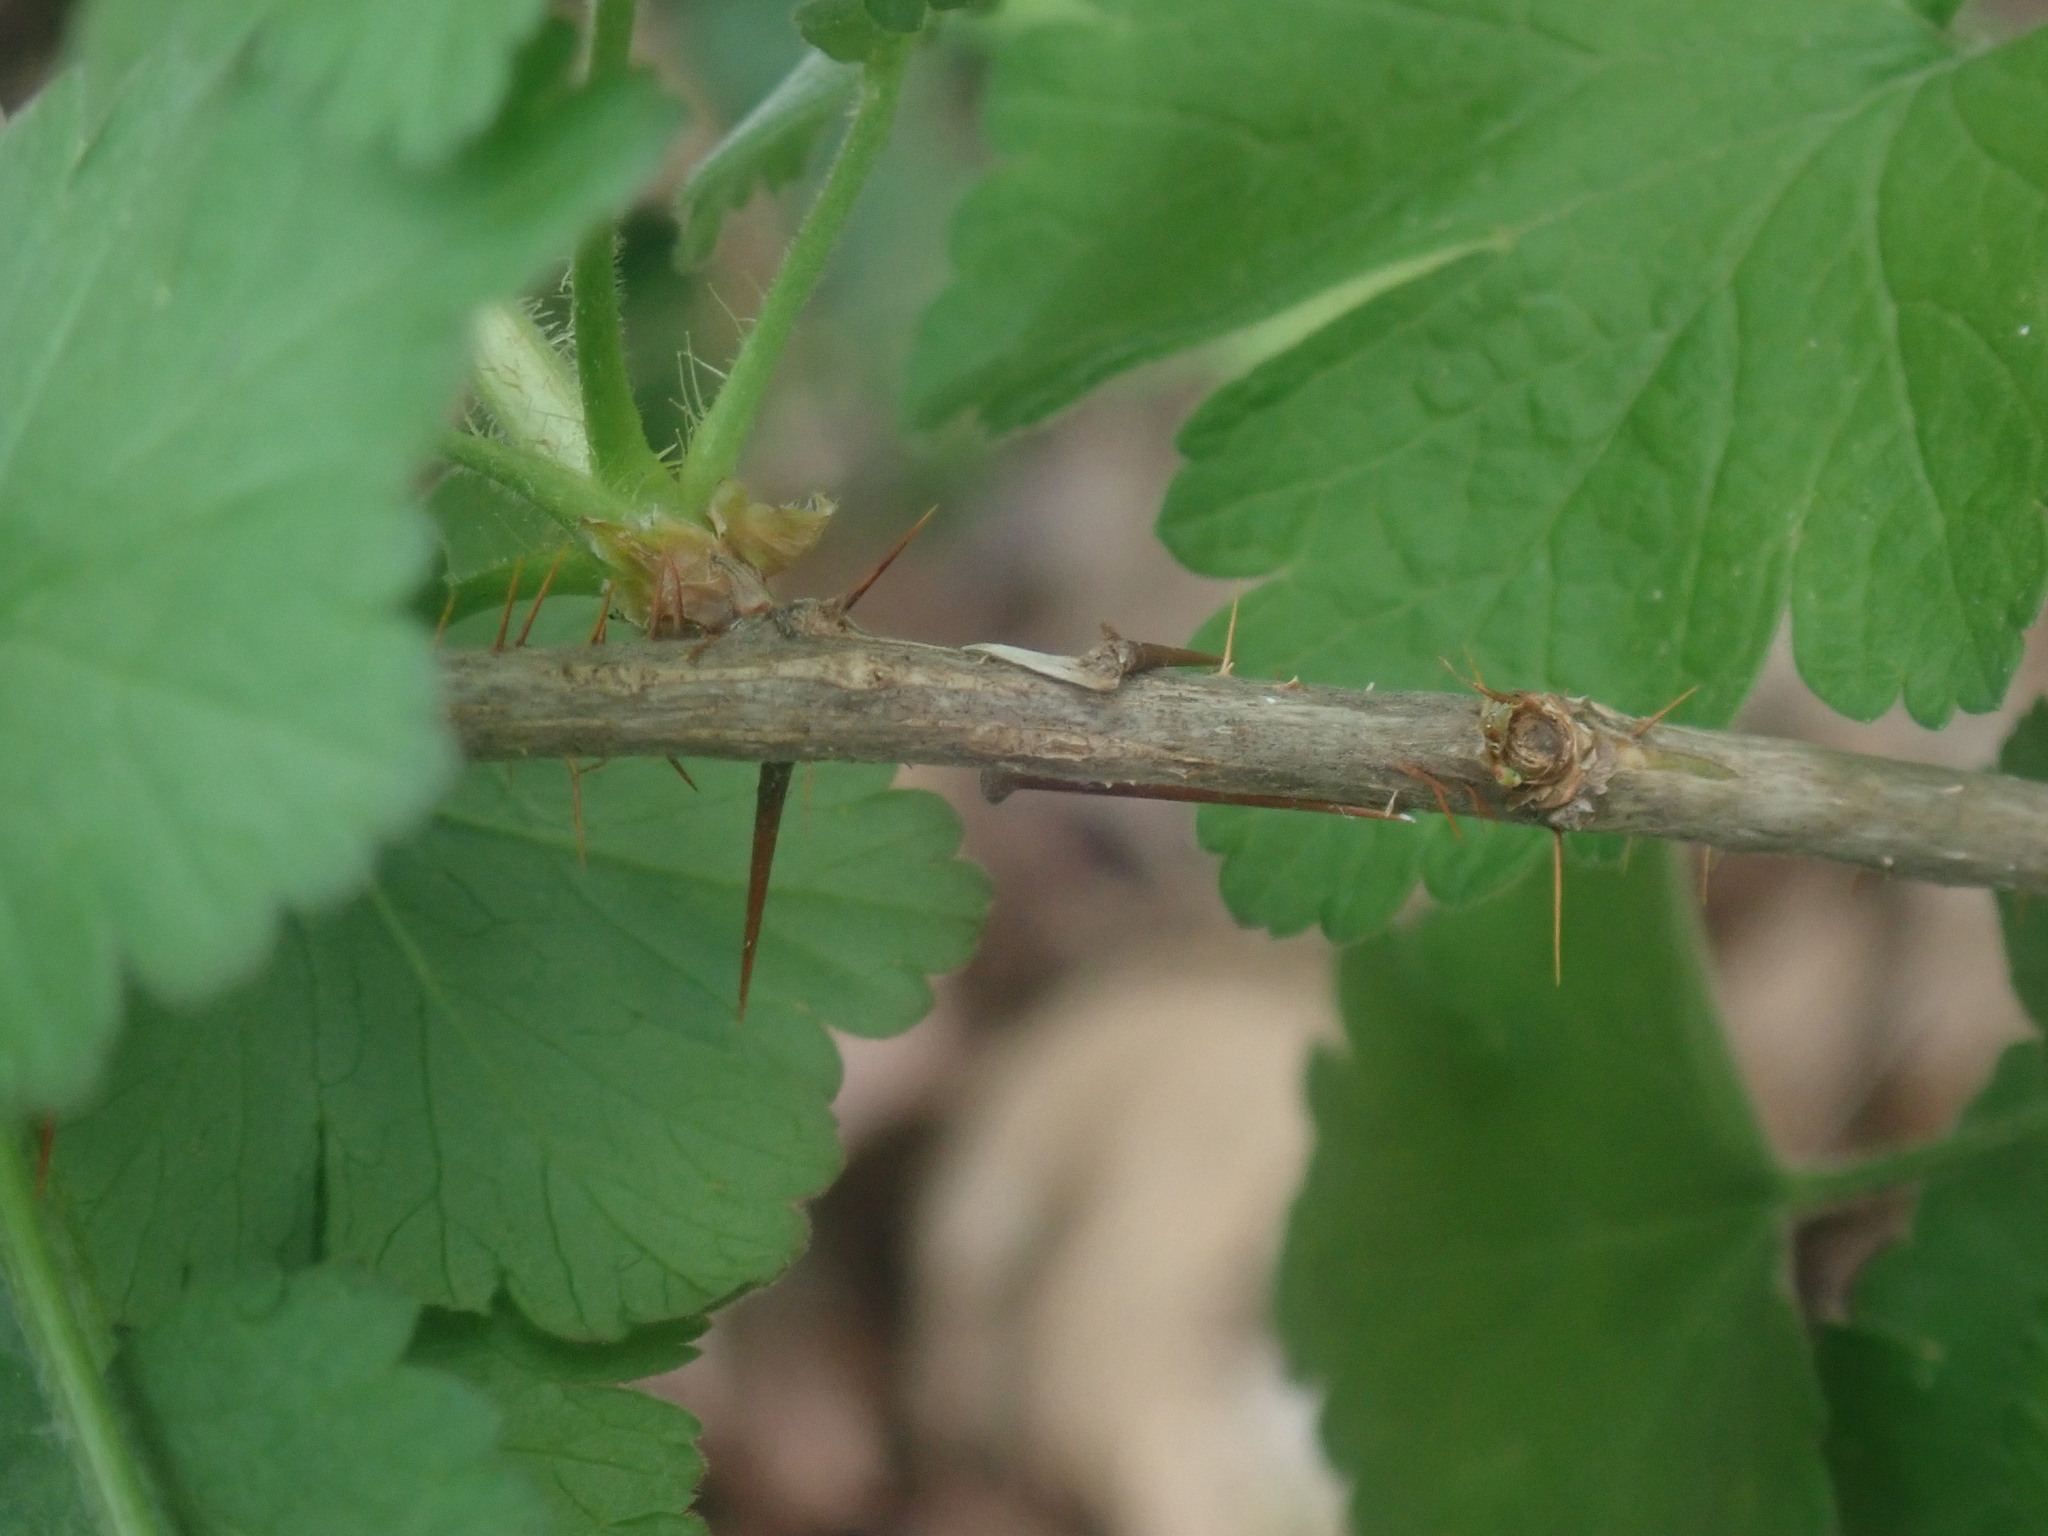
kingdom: Plantae
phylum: Tracheophyta
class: Magnoliopsida
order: Saxifragales
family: Grossulariaceae
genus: Ribes
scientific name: Ribes
